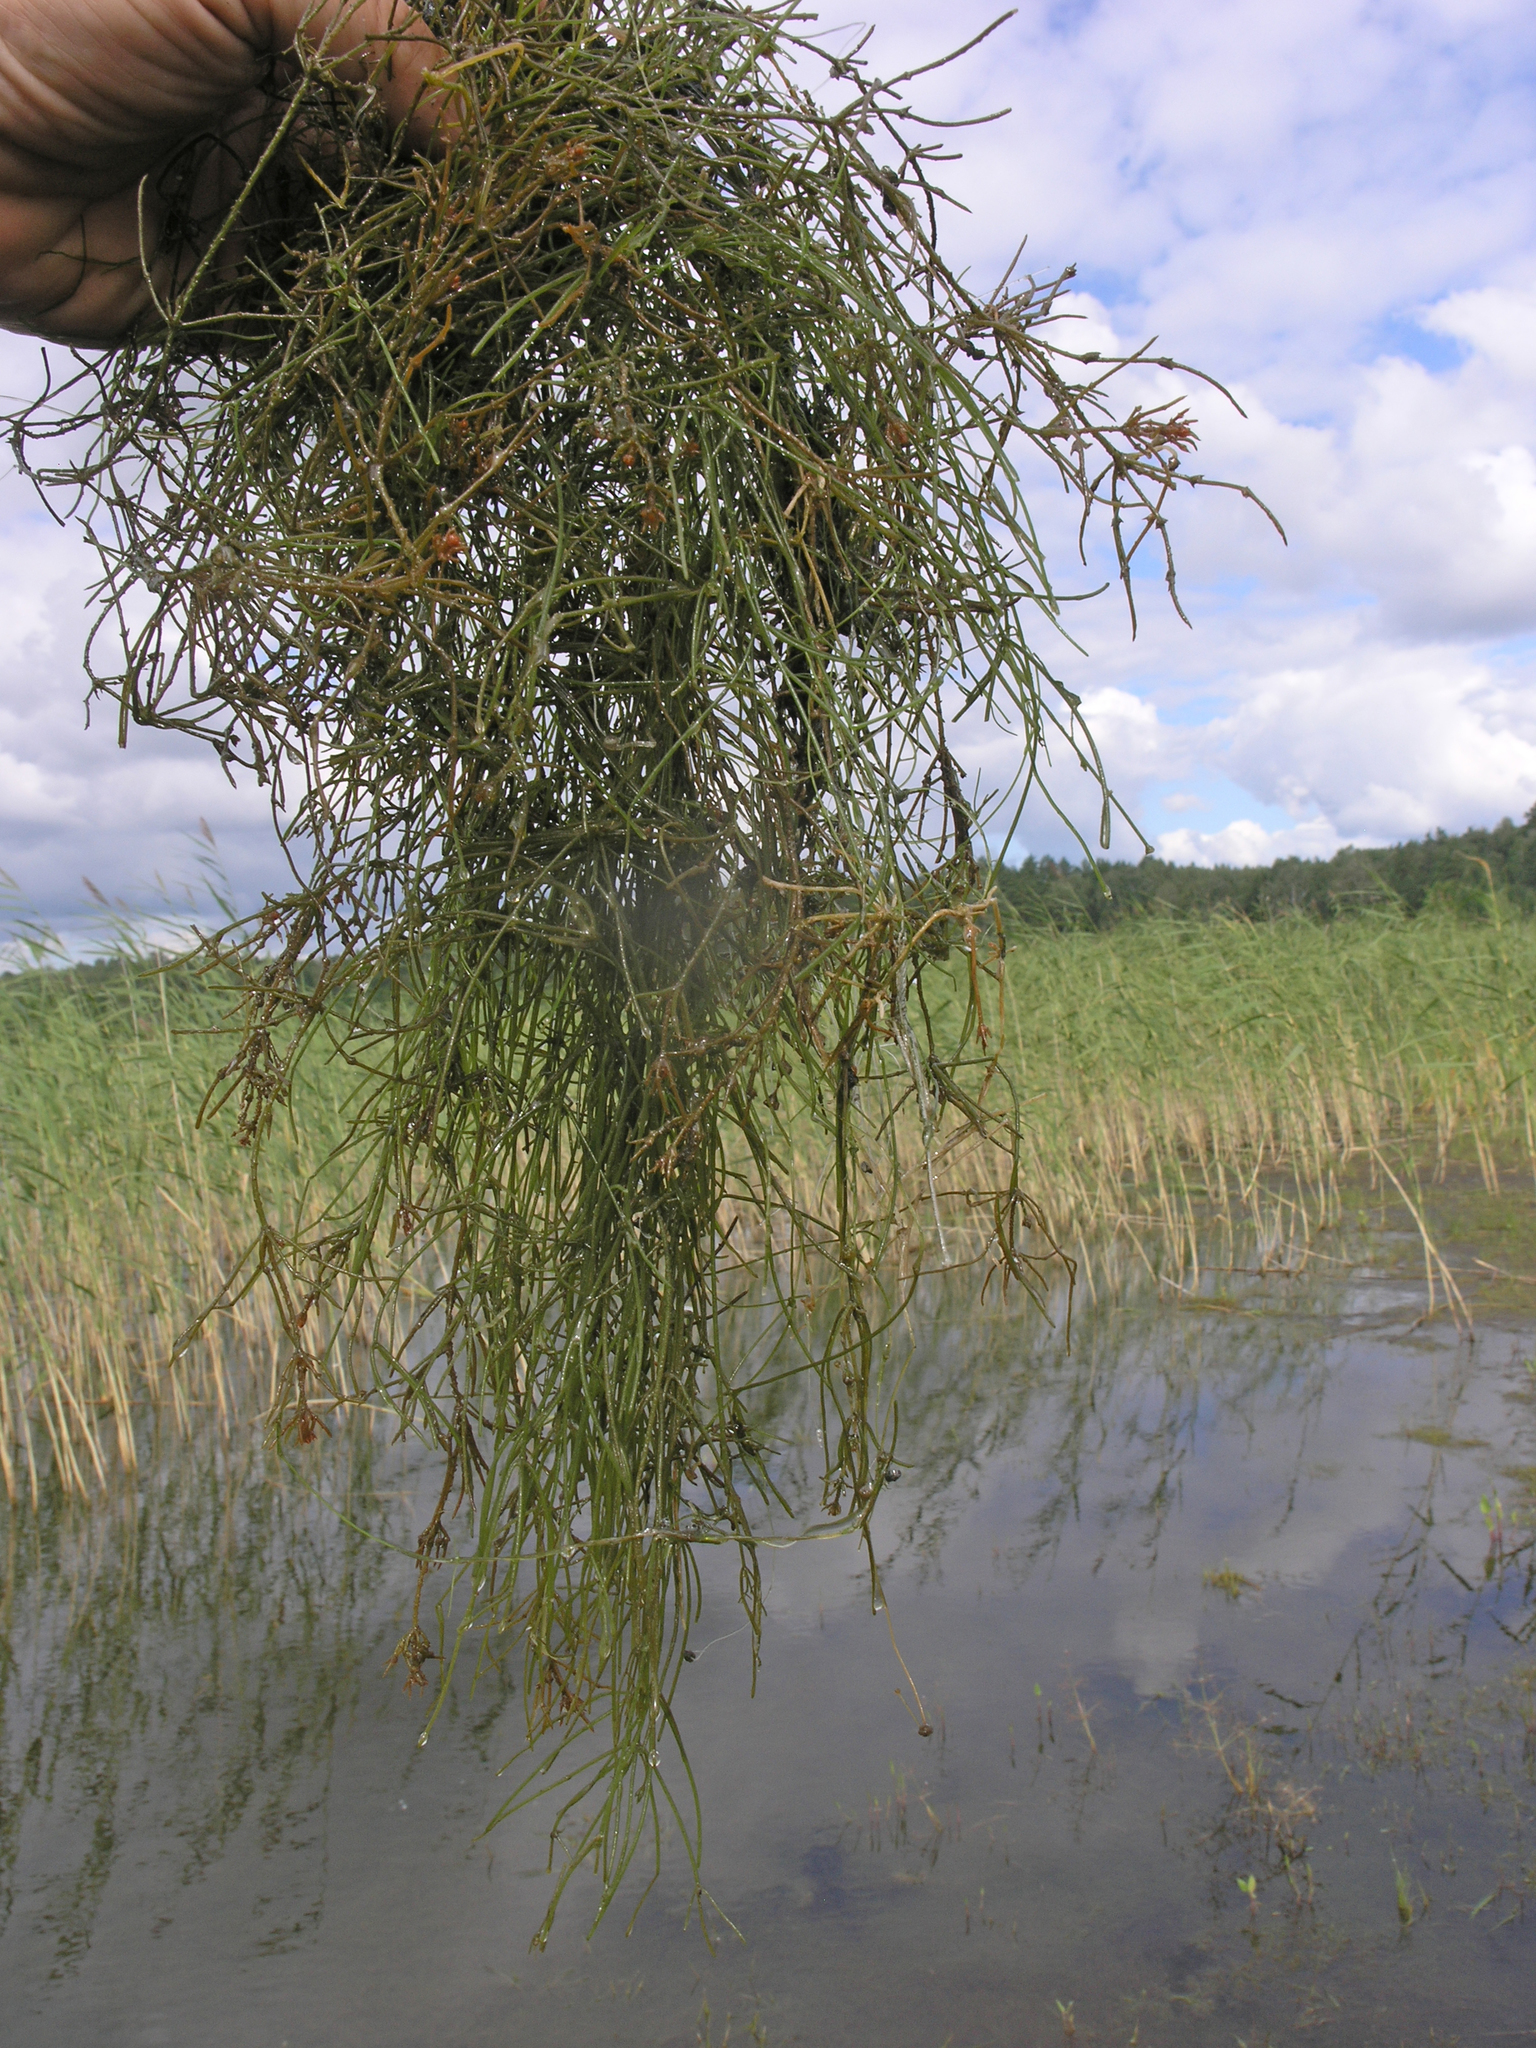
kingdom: Plantae
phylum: Charophyta
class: Charophyceae
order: Charales
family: Characeae
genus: Nitellopsis
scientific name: Nitellopsis obtusa
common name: Starry stonewort
